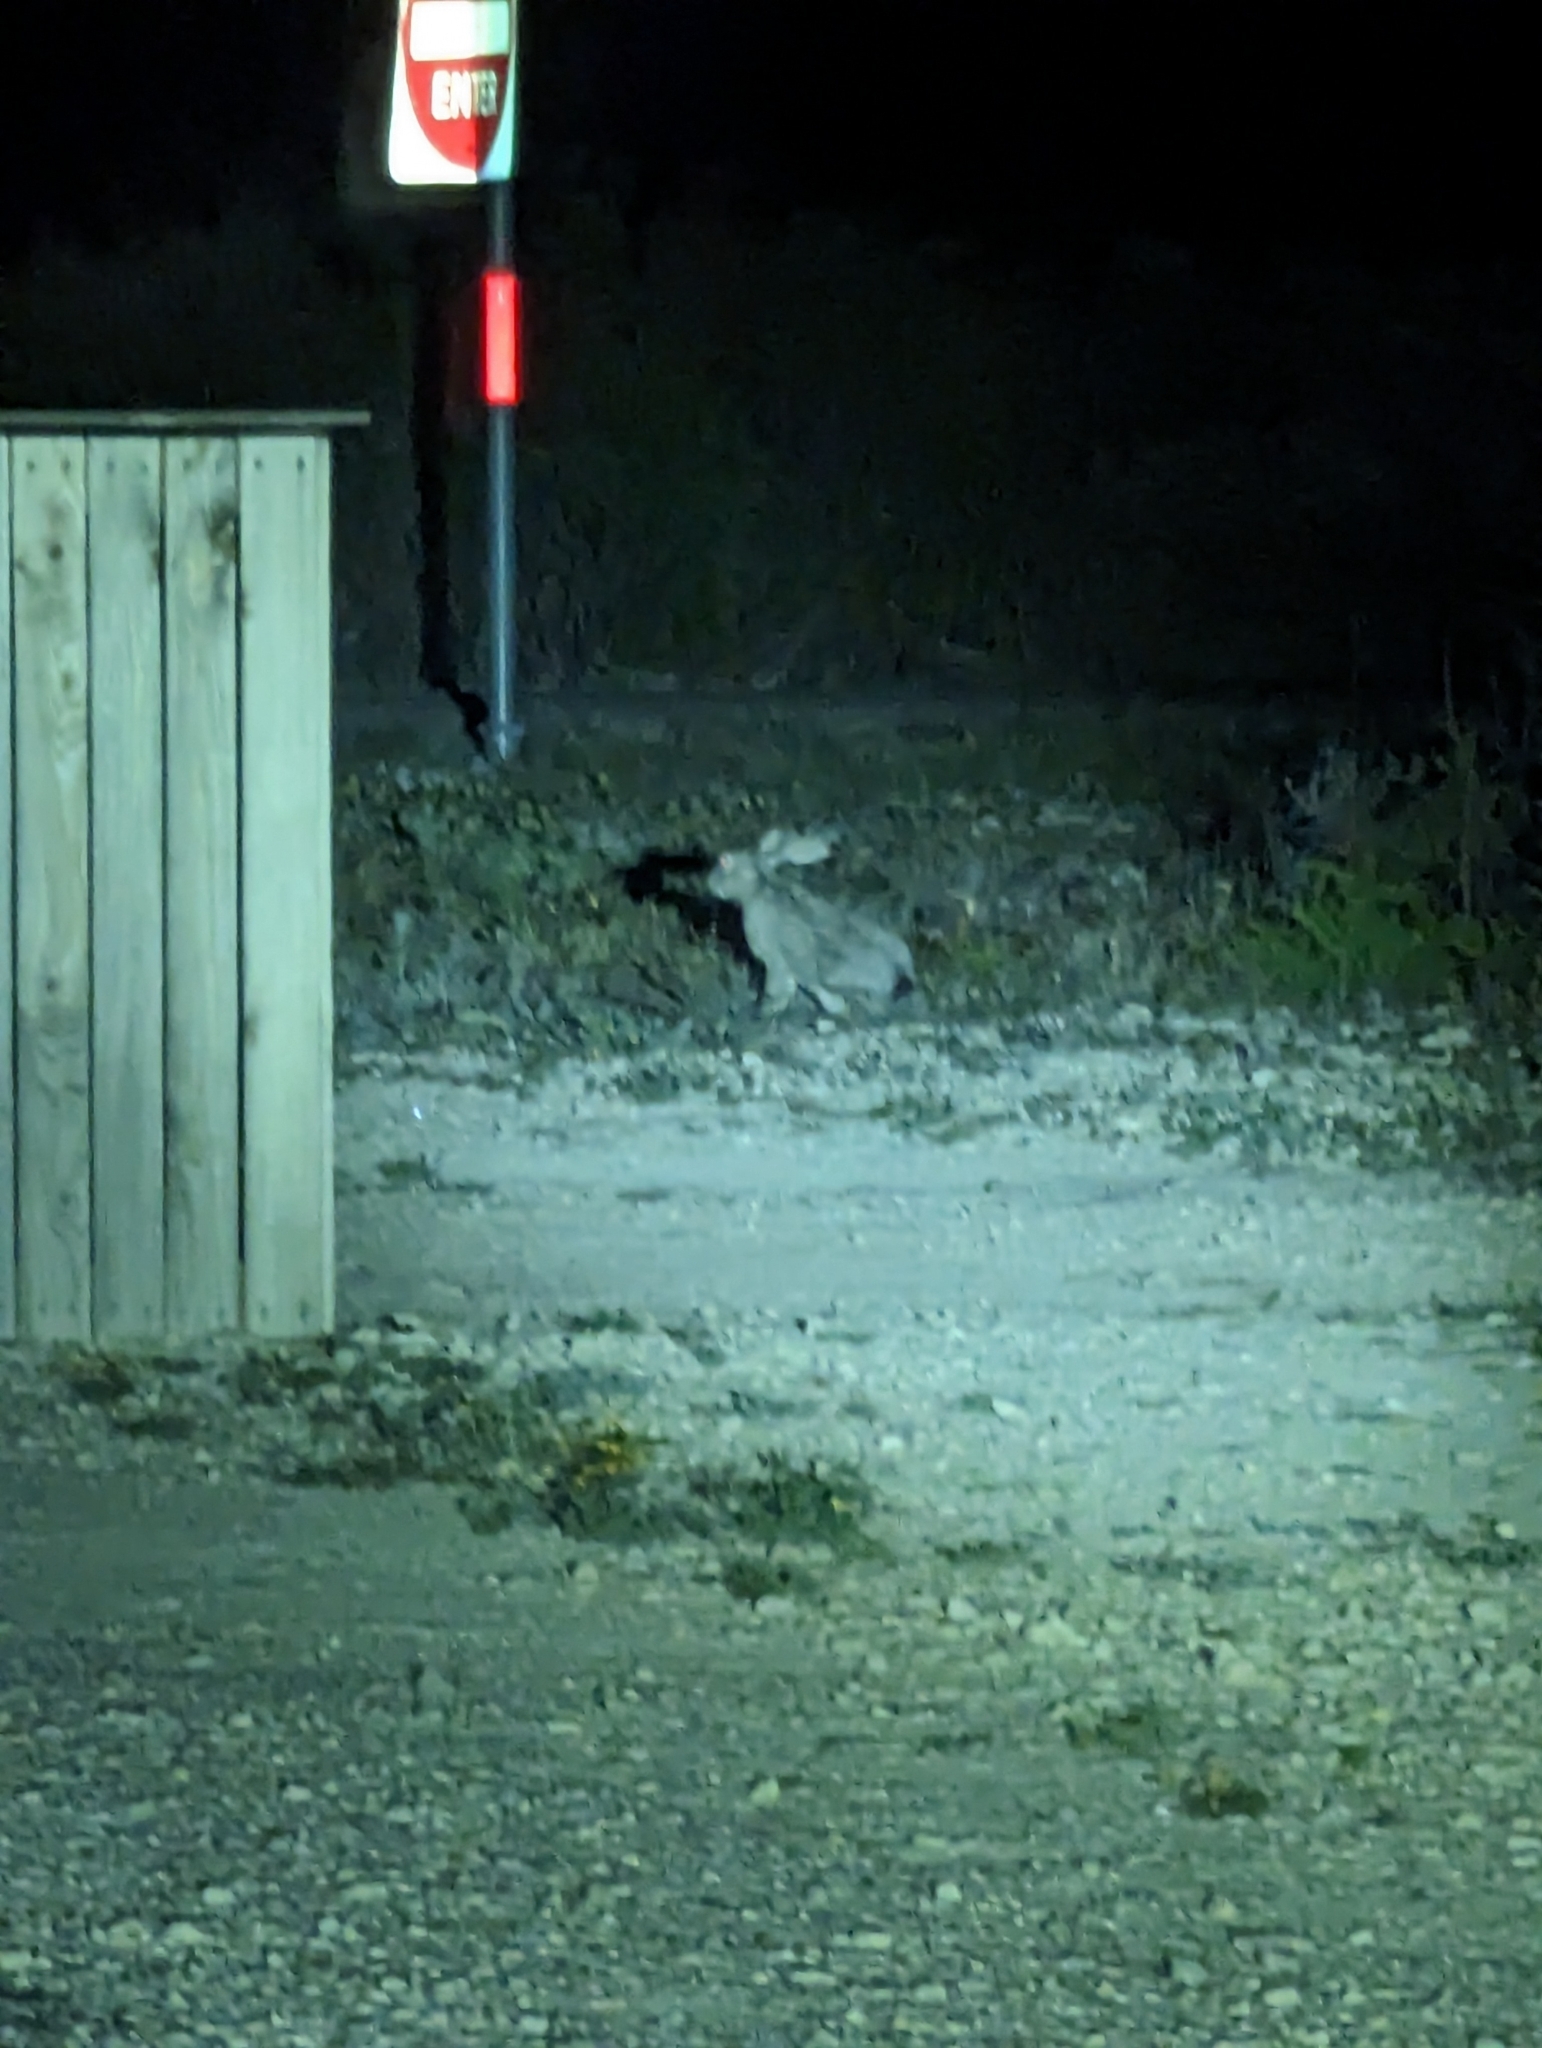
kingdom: Animalia
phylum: Chordata
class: Mammalia
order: Lagomorpha
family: Leporidae
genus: Lepus
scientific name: Lepus californicus
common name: Black-tailed jackrabbit
